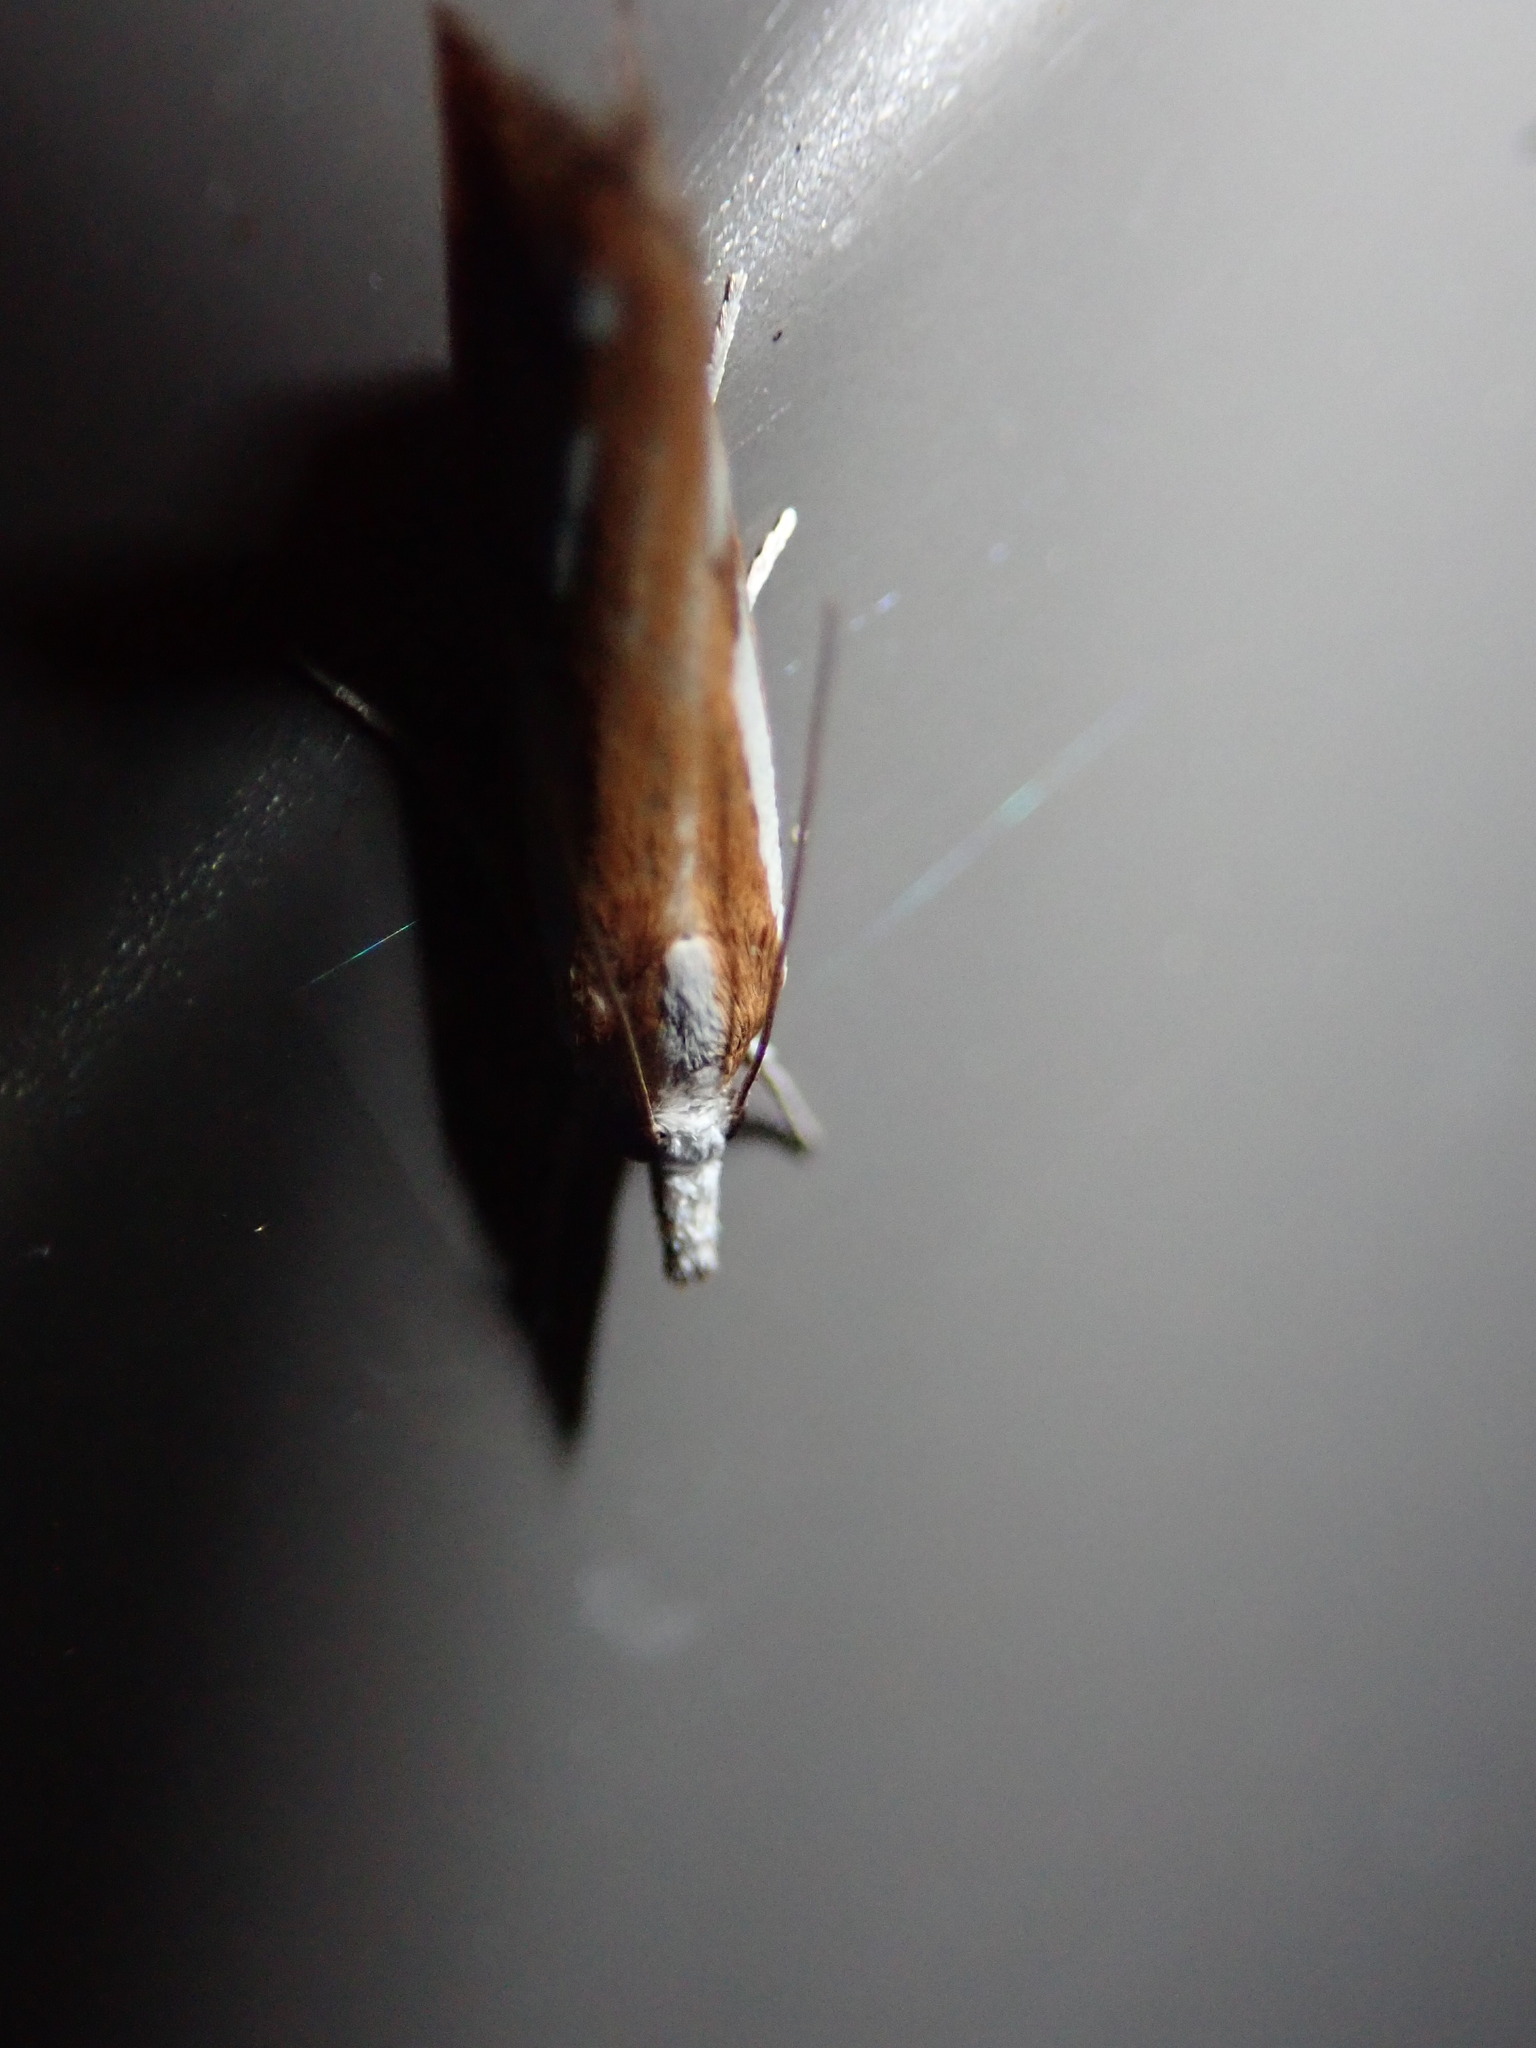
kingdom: Animalia
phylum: Arthropoda
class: Insecta
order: Lepidoptera
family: Crambidae
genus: Crambus
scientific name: Crambus
